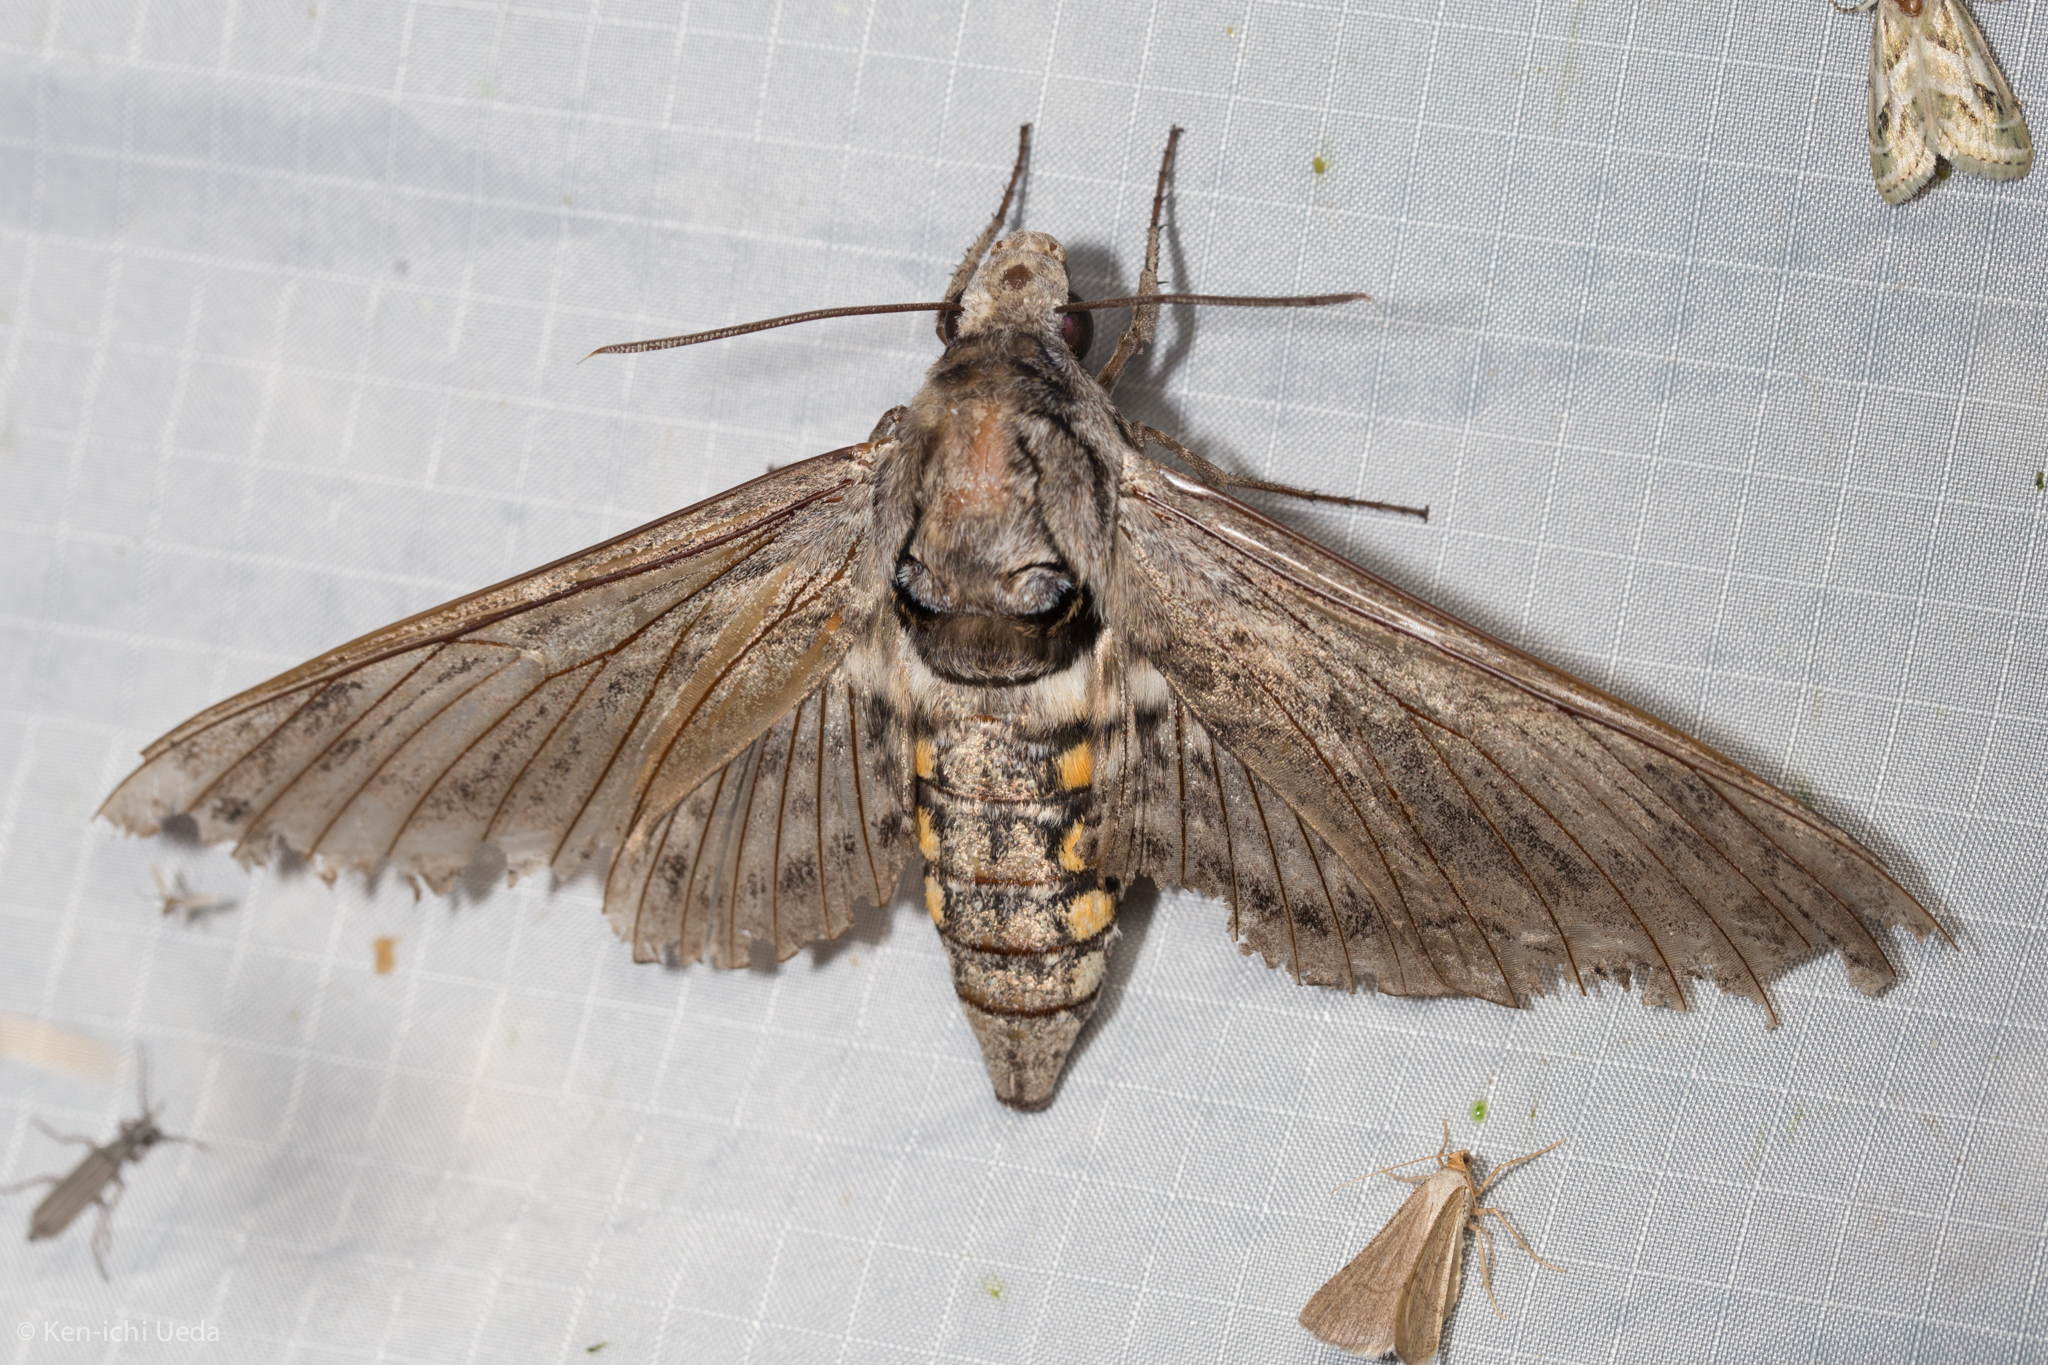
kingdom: Animalia
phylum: Arthropoda
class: Insecta
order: Lepidoptera
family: Sphingidae
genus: Manduca
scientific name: Manduca quinquemaculatus
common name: Five-spotted hawk-moth
